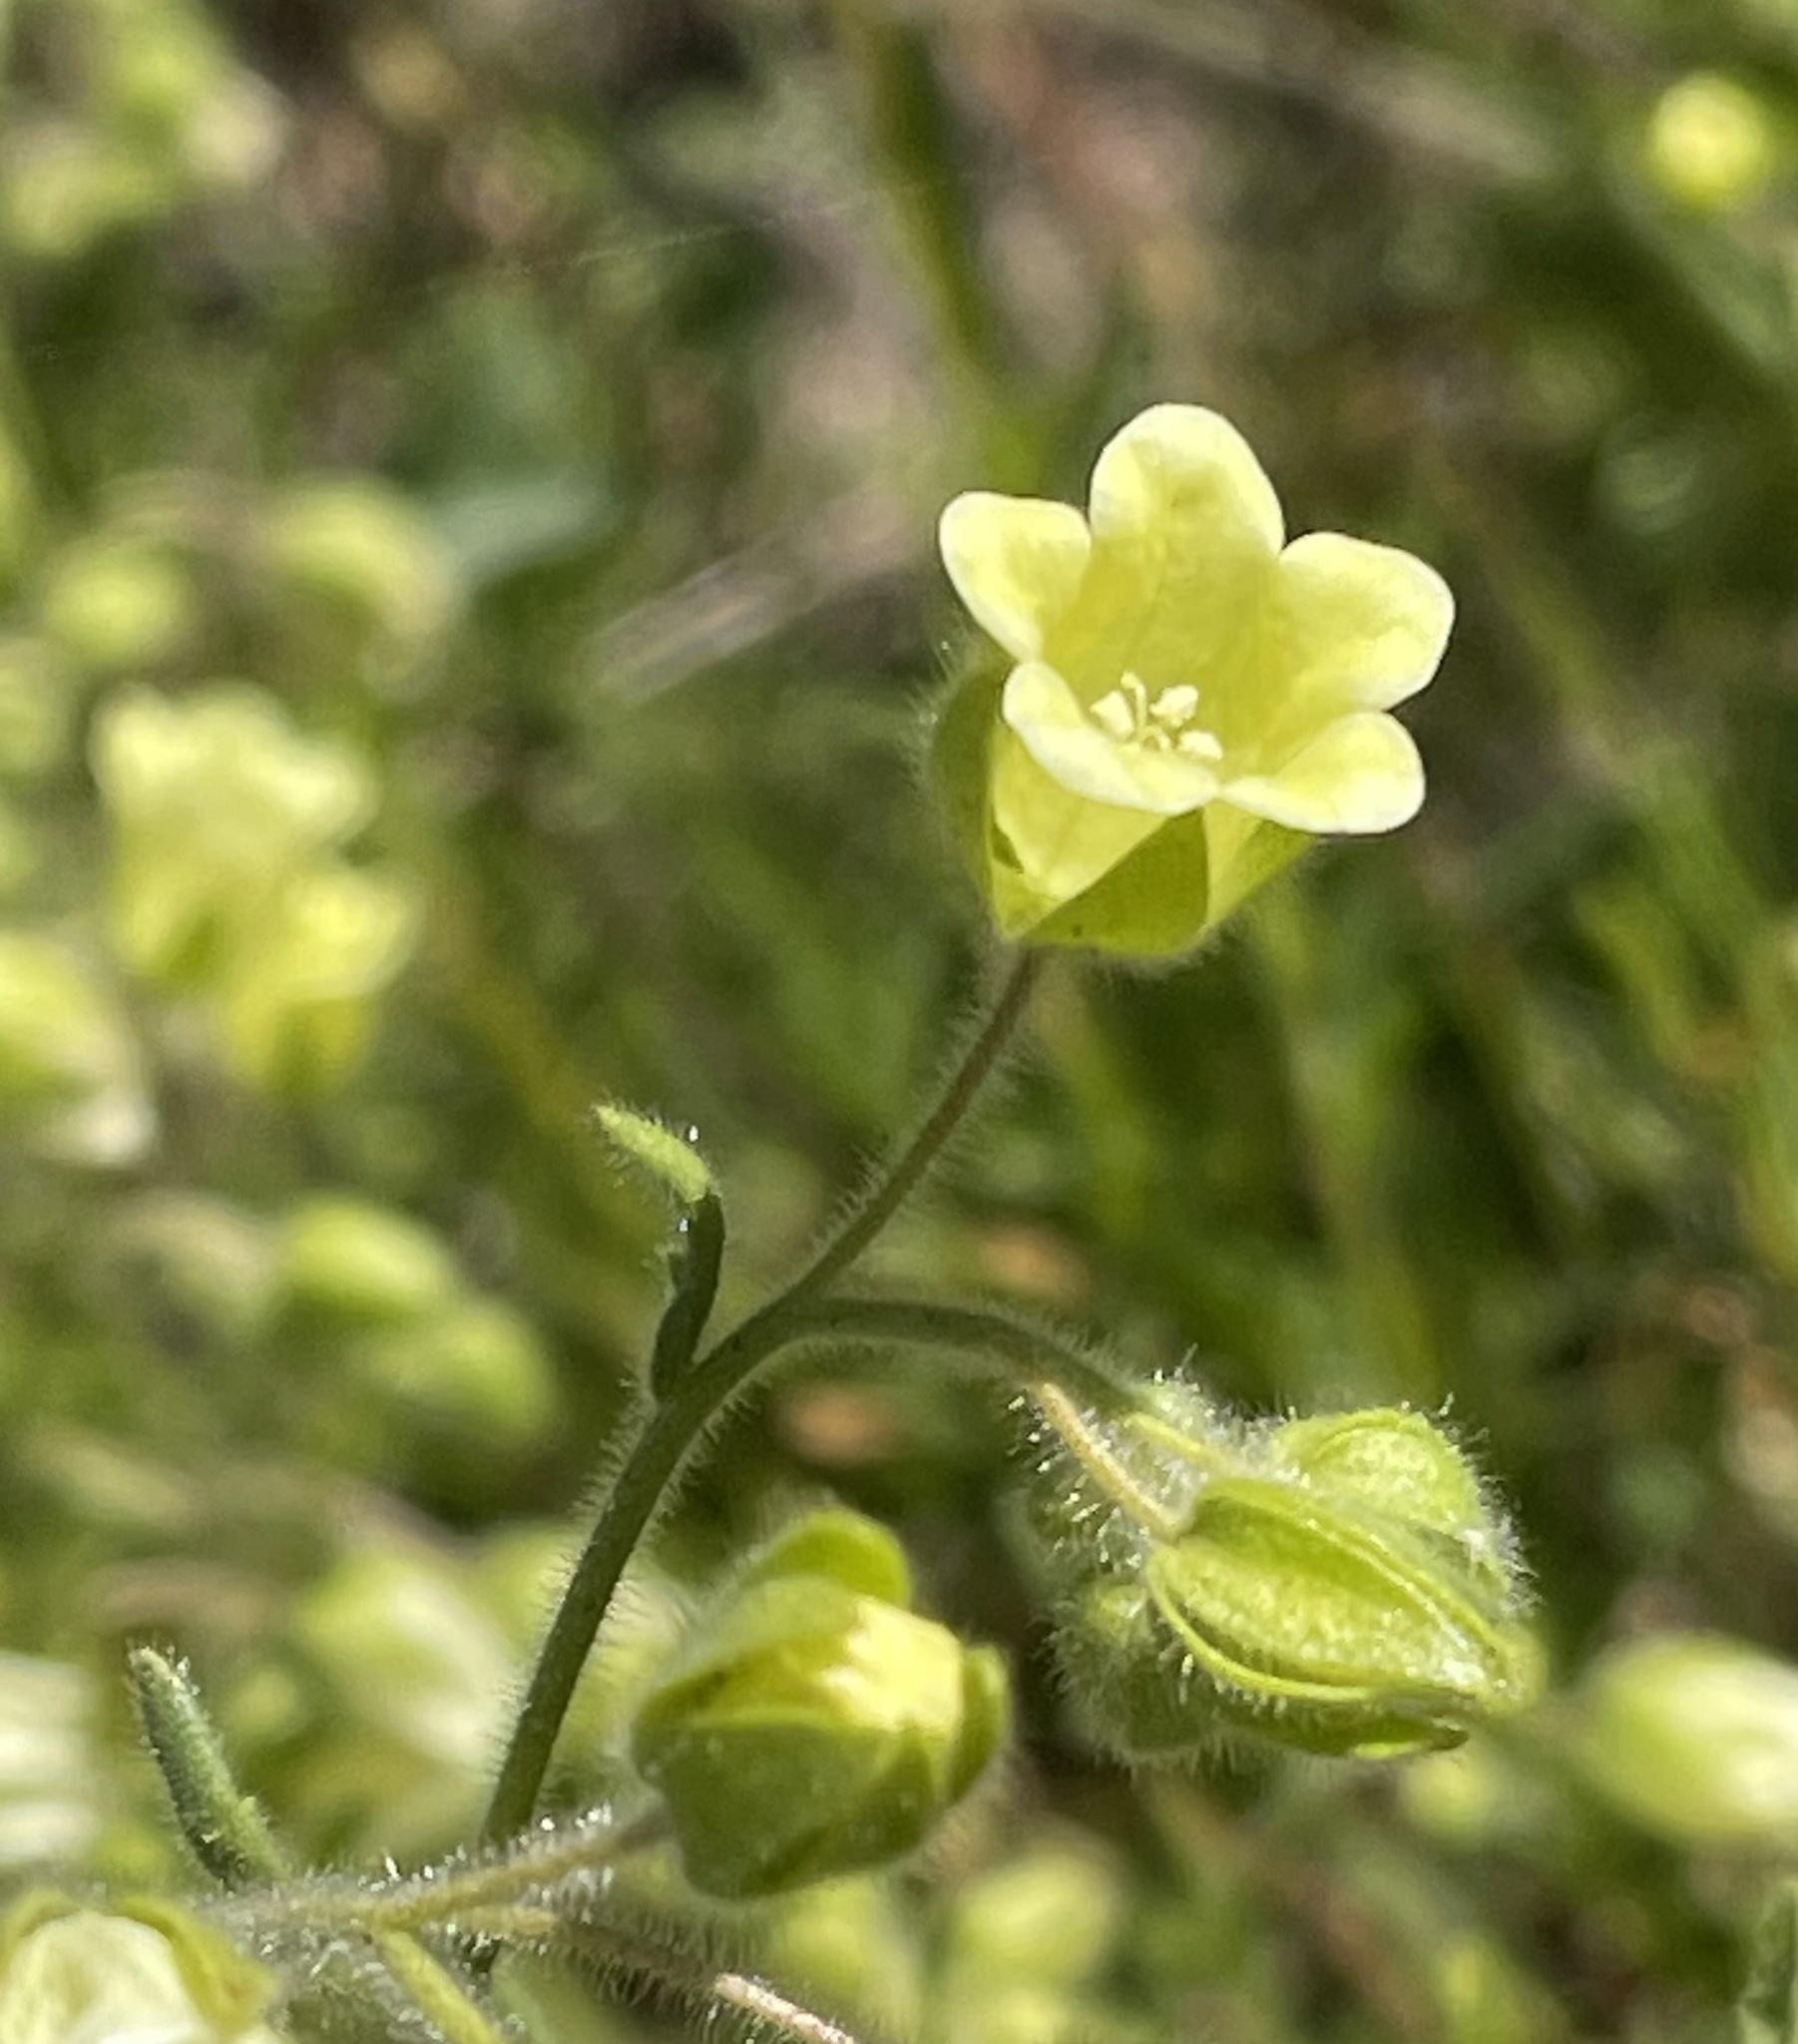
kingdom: Plantae
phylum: Tracheophyta
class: Magnoliopsida
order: Boraginales
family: Hydrophyllaceae
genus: Emmenanthe
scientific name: Emmenanthe penduliflora
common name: Whispering-bells
